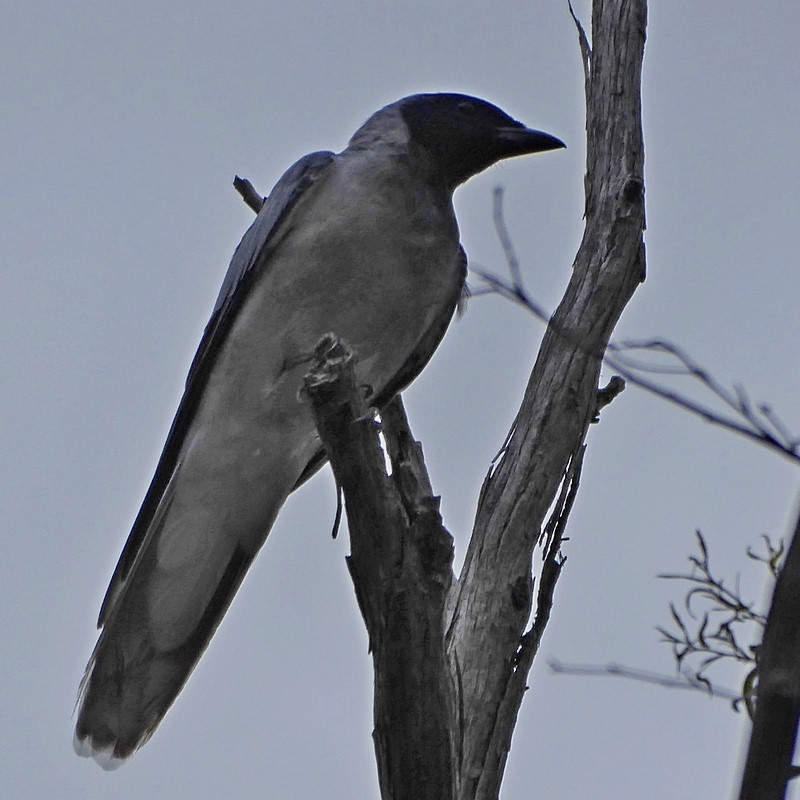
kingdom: Animalia
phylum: Chordata
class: Aves
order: Passeriformes
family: Campephagidae
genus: Coracina
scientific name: Coracina novaehollandiae
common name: Black-faced cuckooshrike
